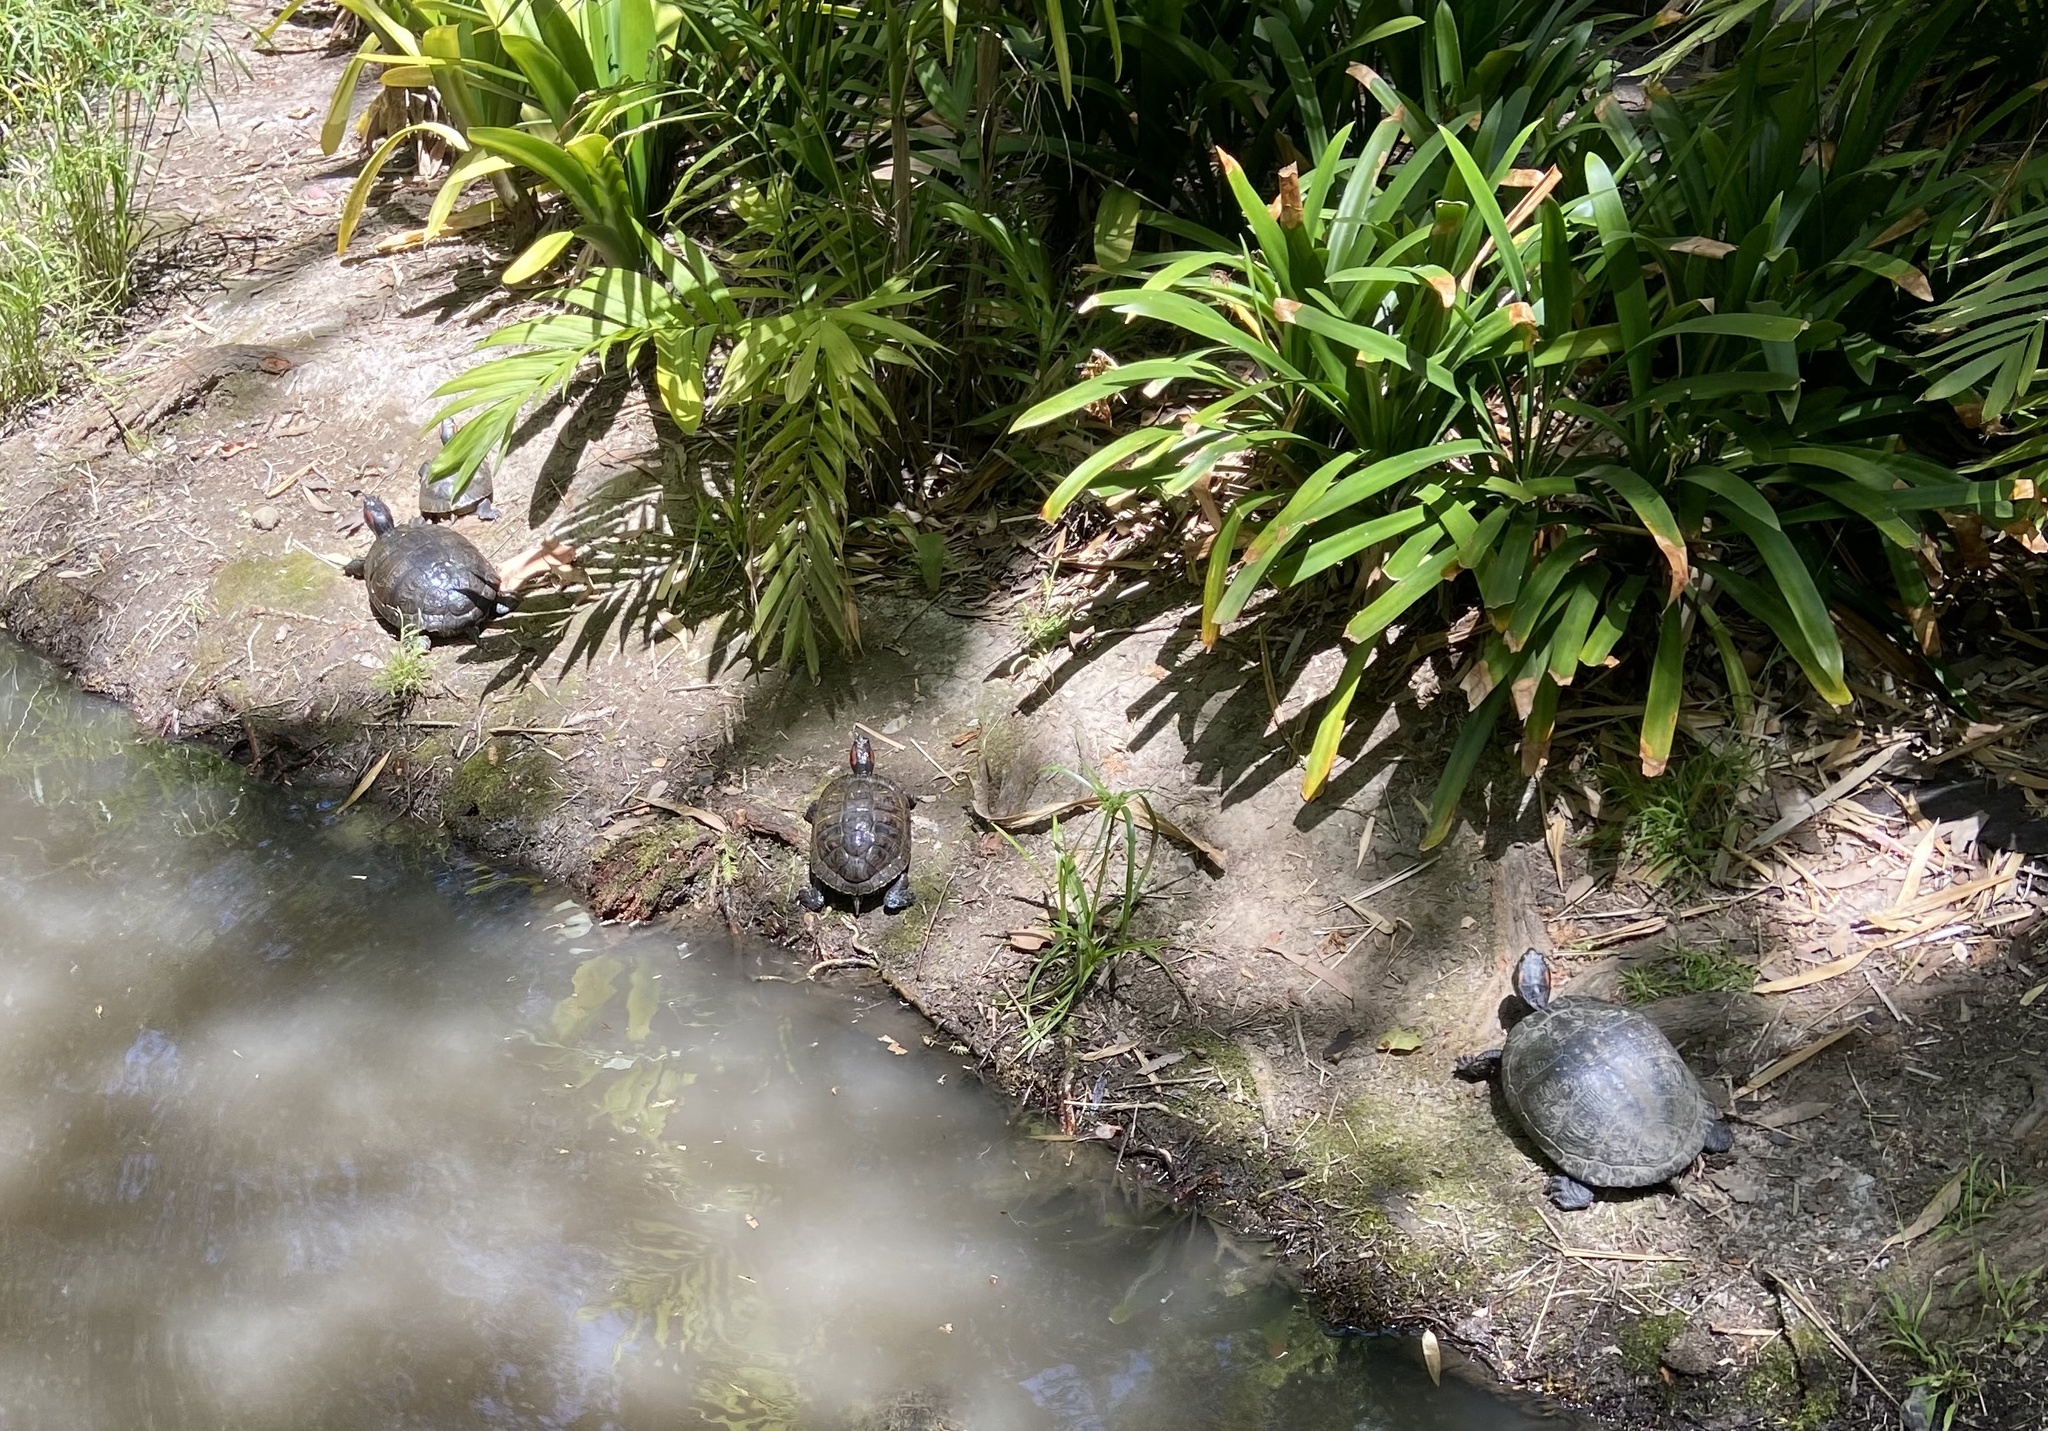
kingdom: Animalia
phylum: Chordata
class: Testudines
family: Emydidae
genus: Trachemys
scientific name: Trachemys scripta
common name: Slider
